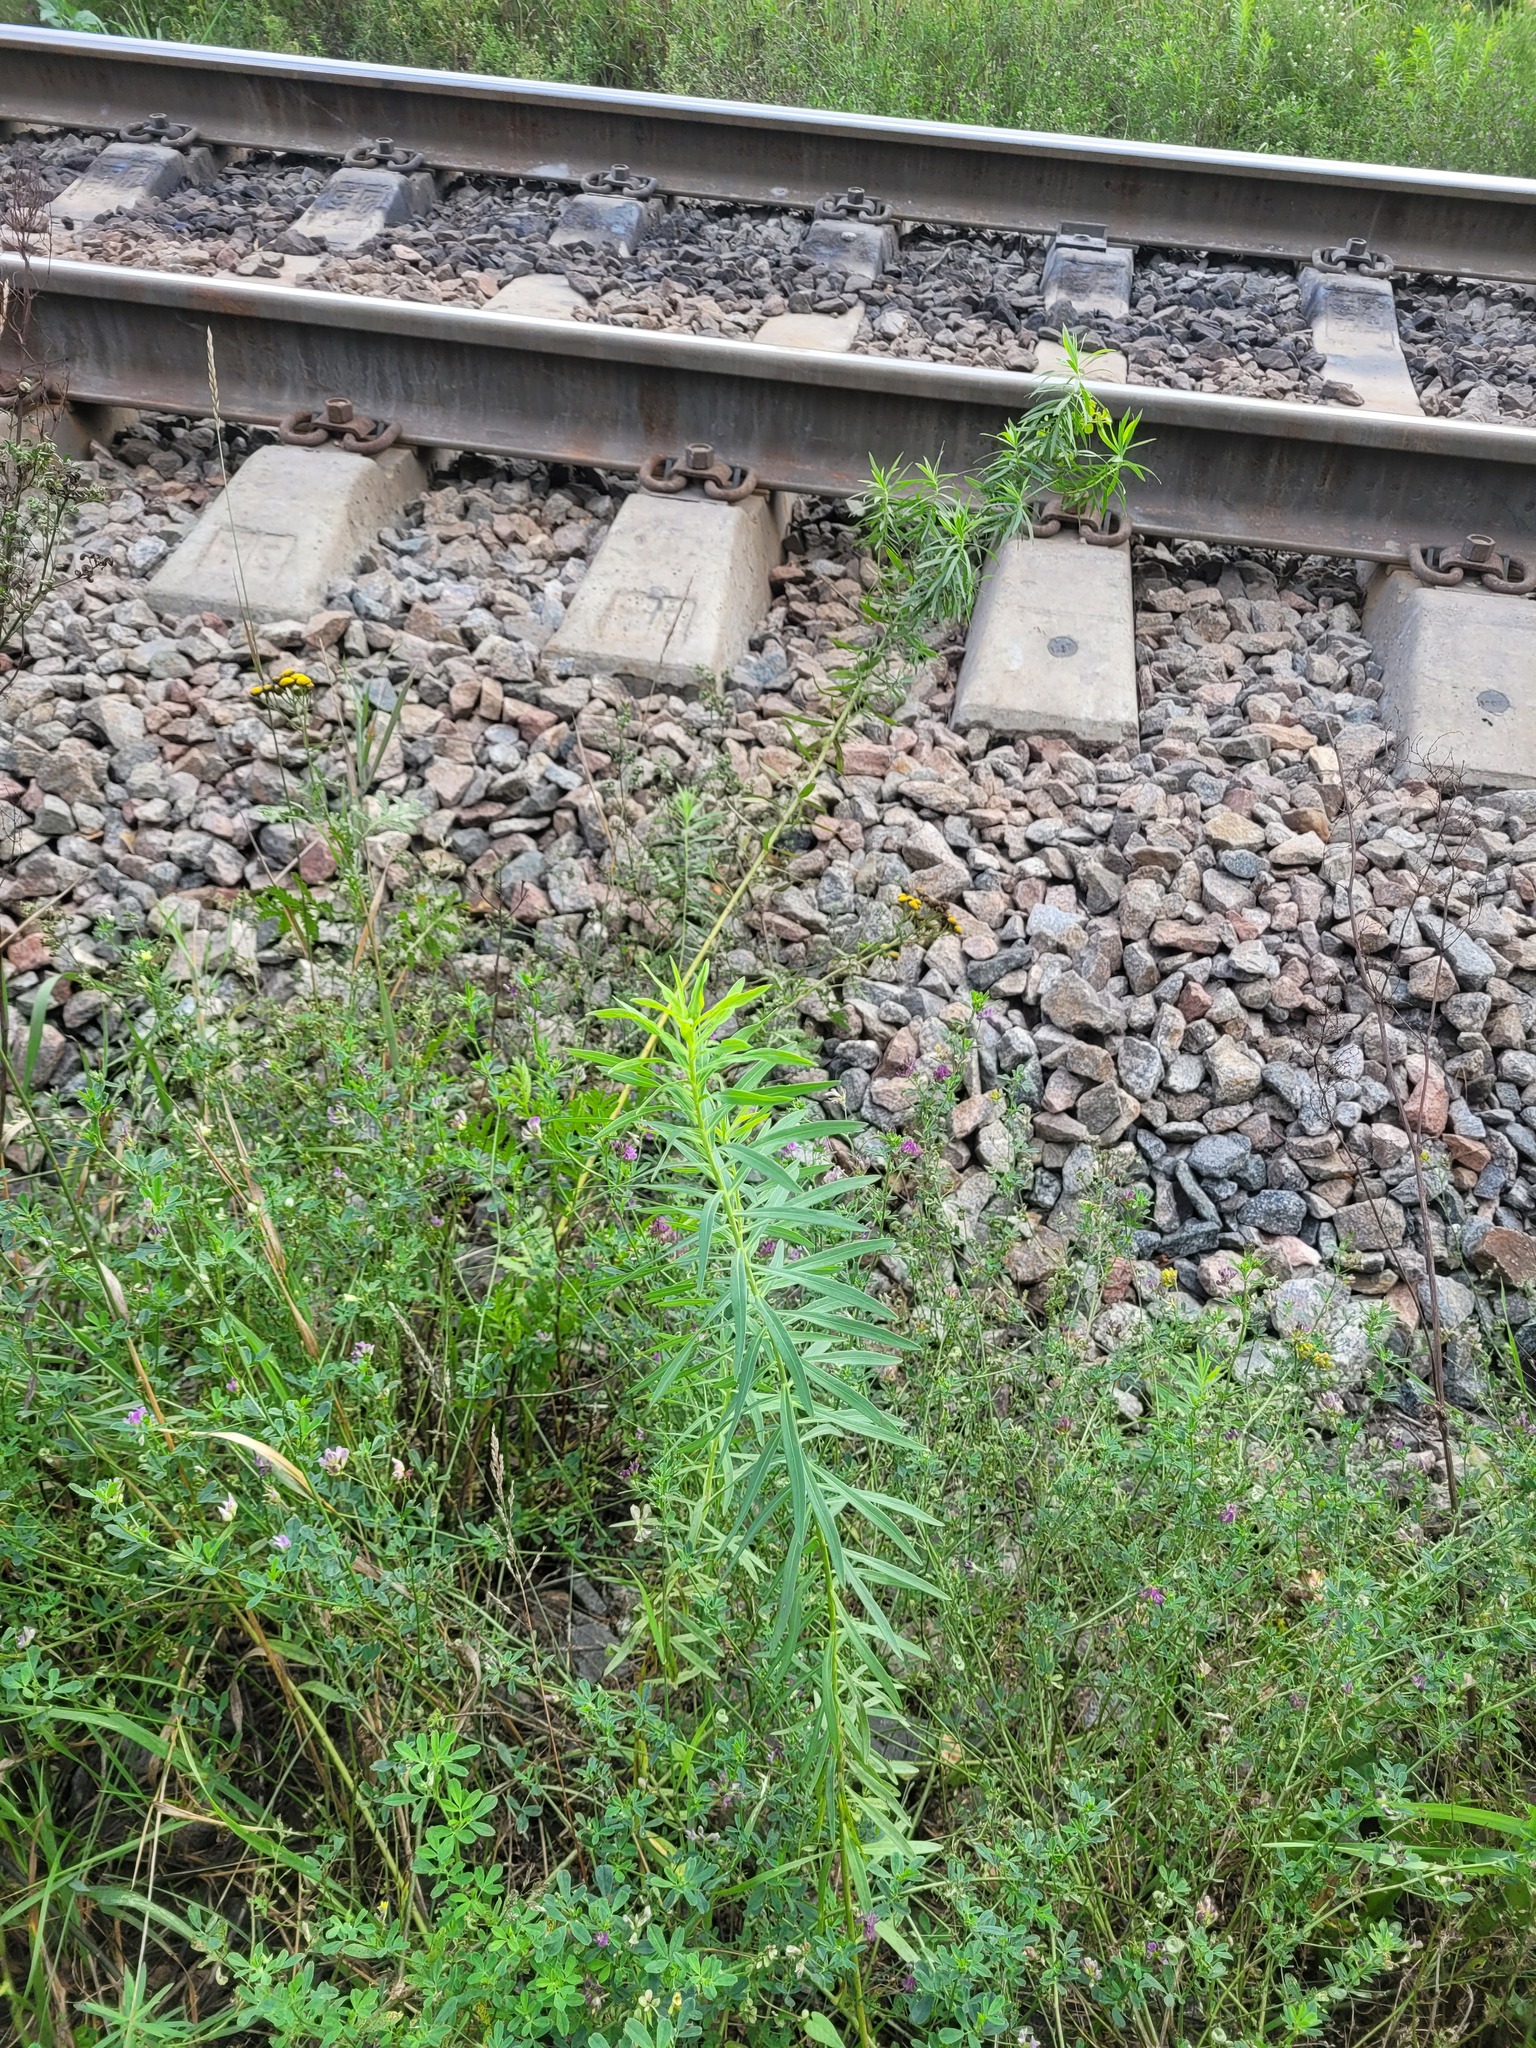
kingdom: Plantae
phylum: Tracheophyta
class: Magnoliopsida
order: Malpighiales
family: Euphorbiaceae
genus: Euphorbia
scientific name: Euphorbia virgata
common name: Leafy spurge
